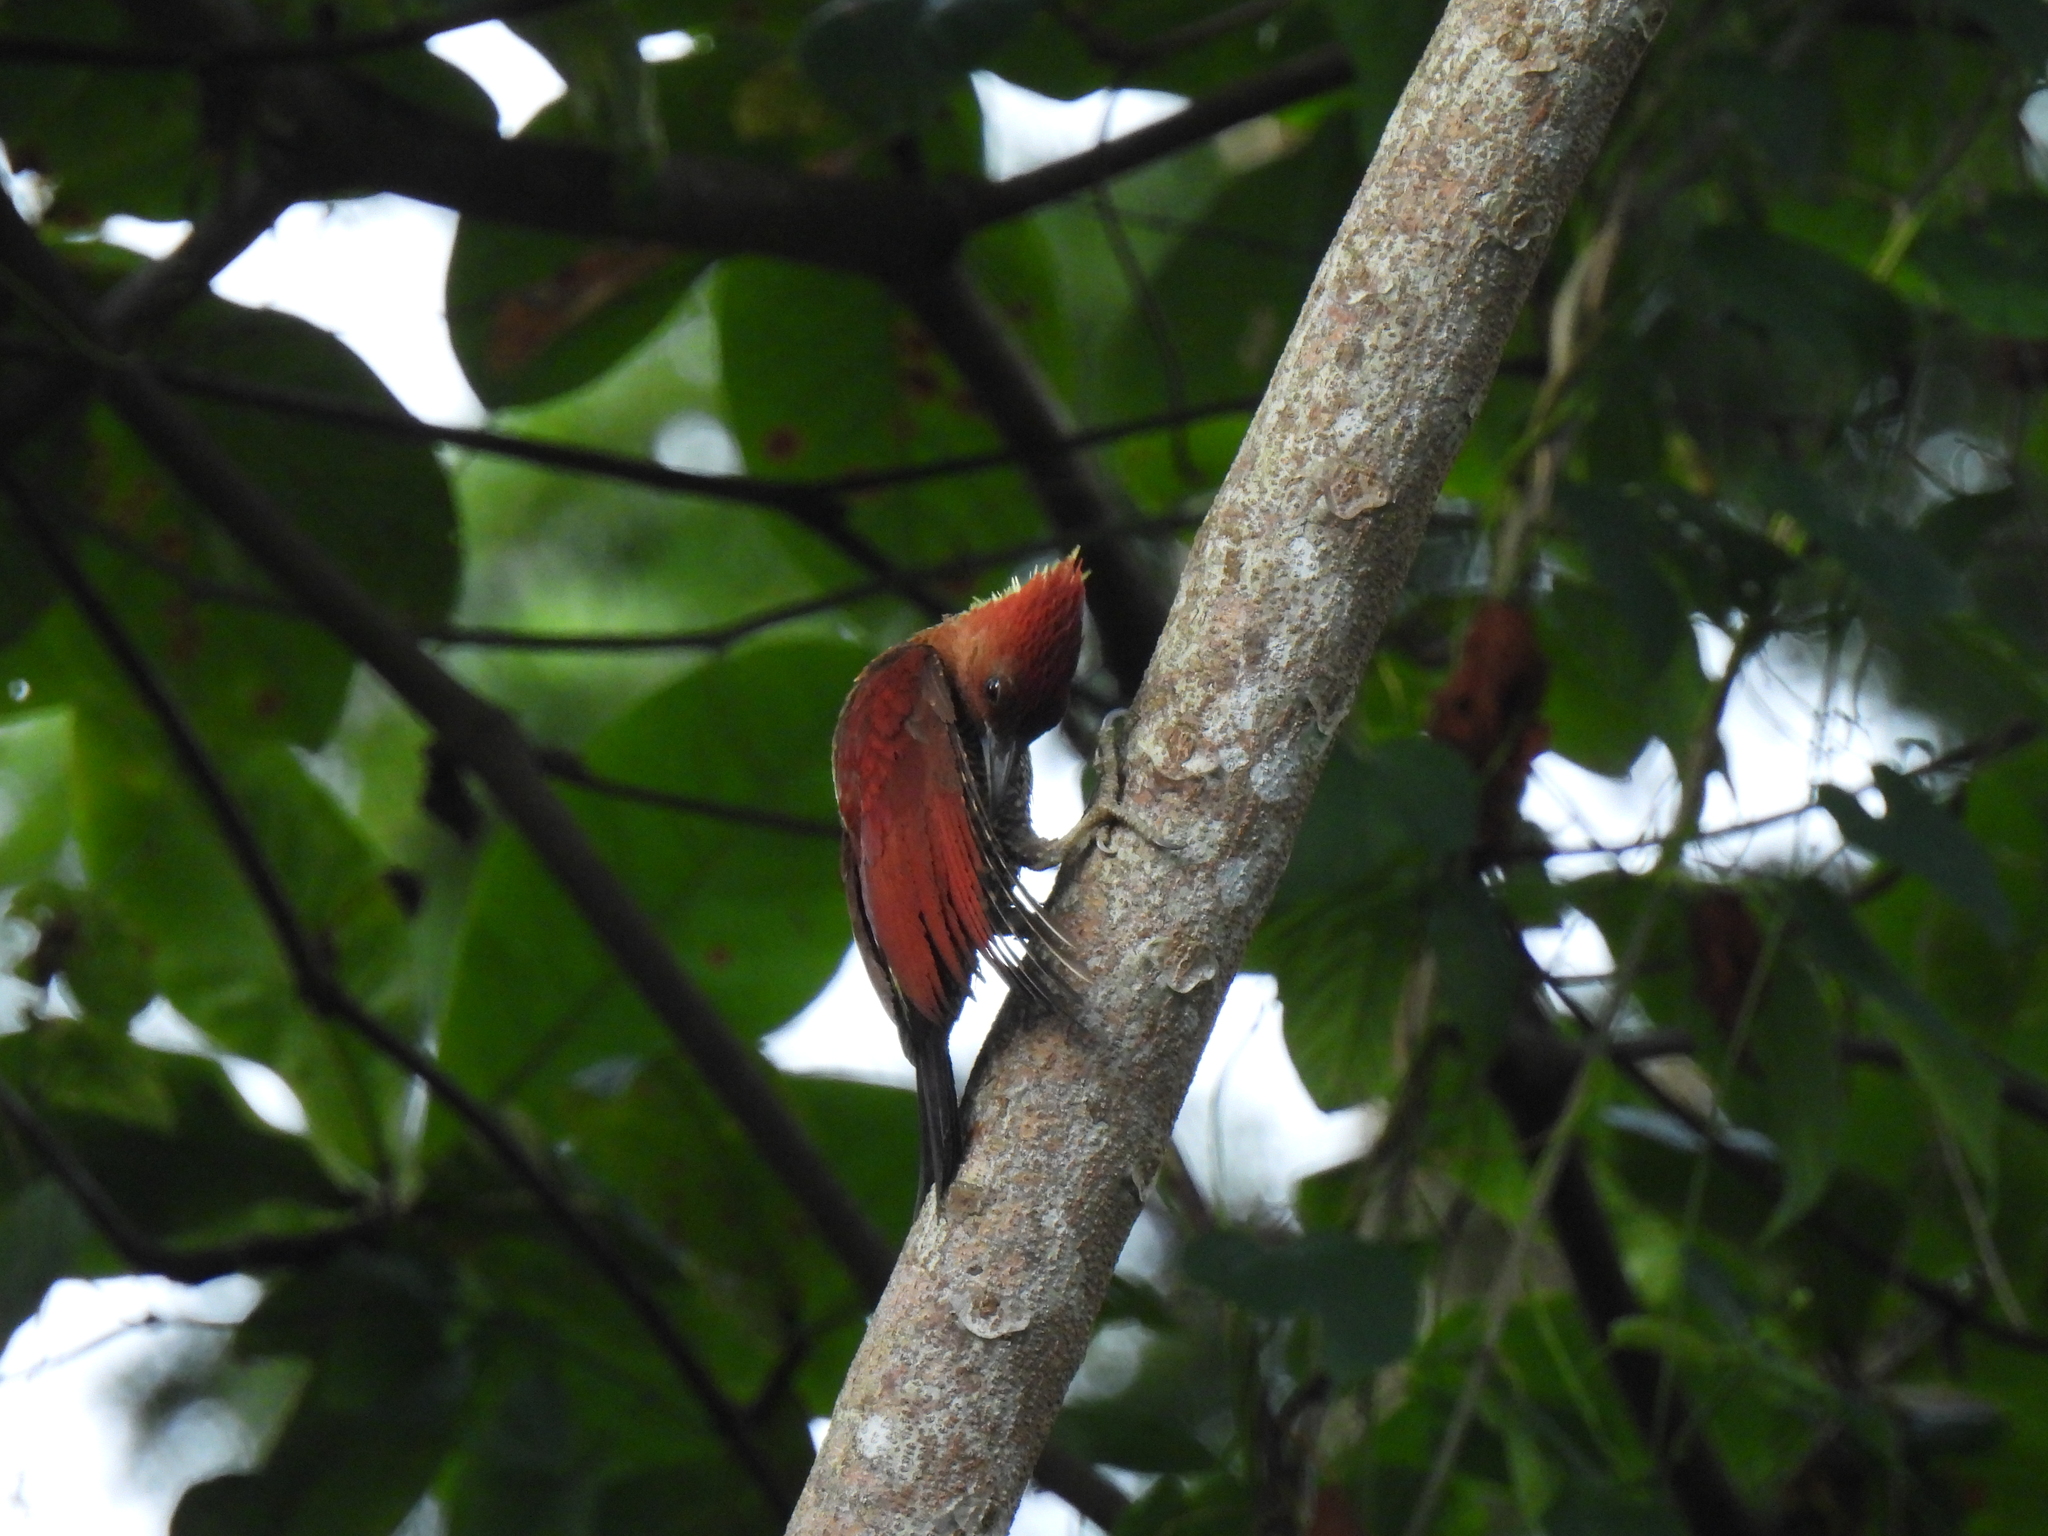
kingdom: Animalia
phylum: Chordata
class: Aves
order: Piciformes
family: Picidae
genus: Chrysophlegma
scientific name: Chrysophlegma miniaceum
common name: Banded woodpecker
